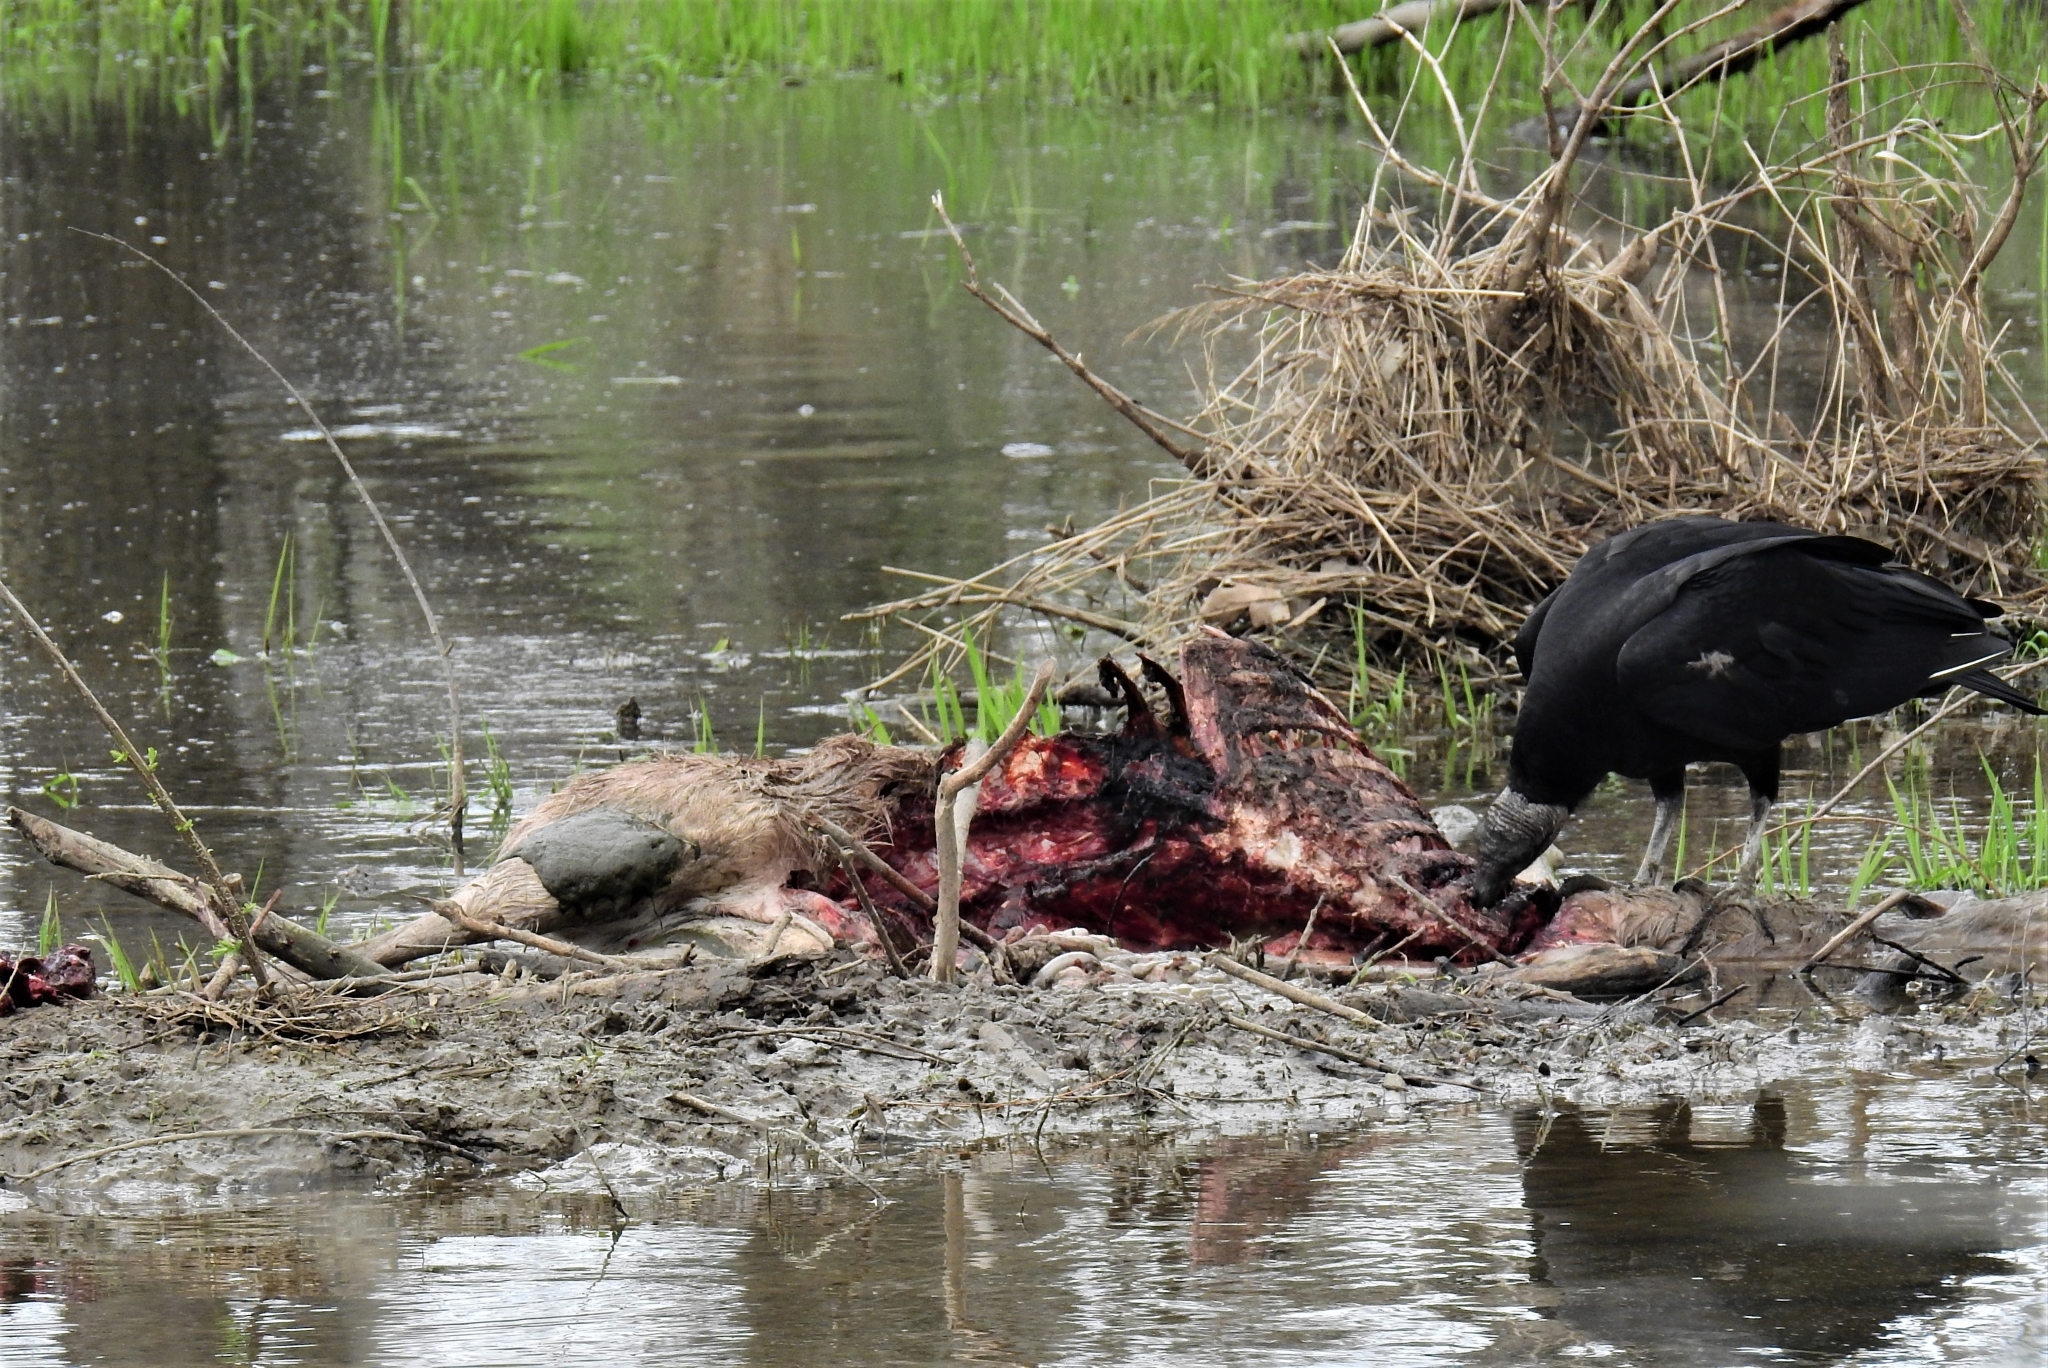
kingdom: Animalia
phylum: Chordata
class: Aves
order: Accipitriformes
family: Cathartidae
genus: Coragyps
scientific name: Coragyps atratus
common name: Black vulture
